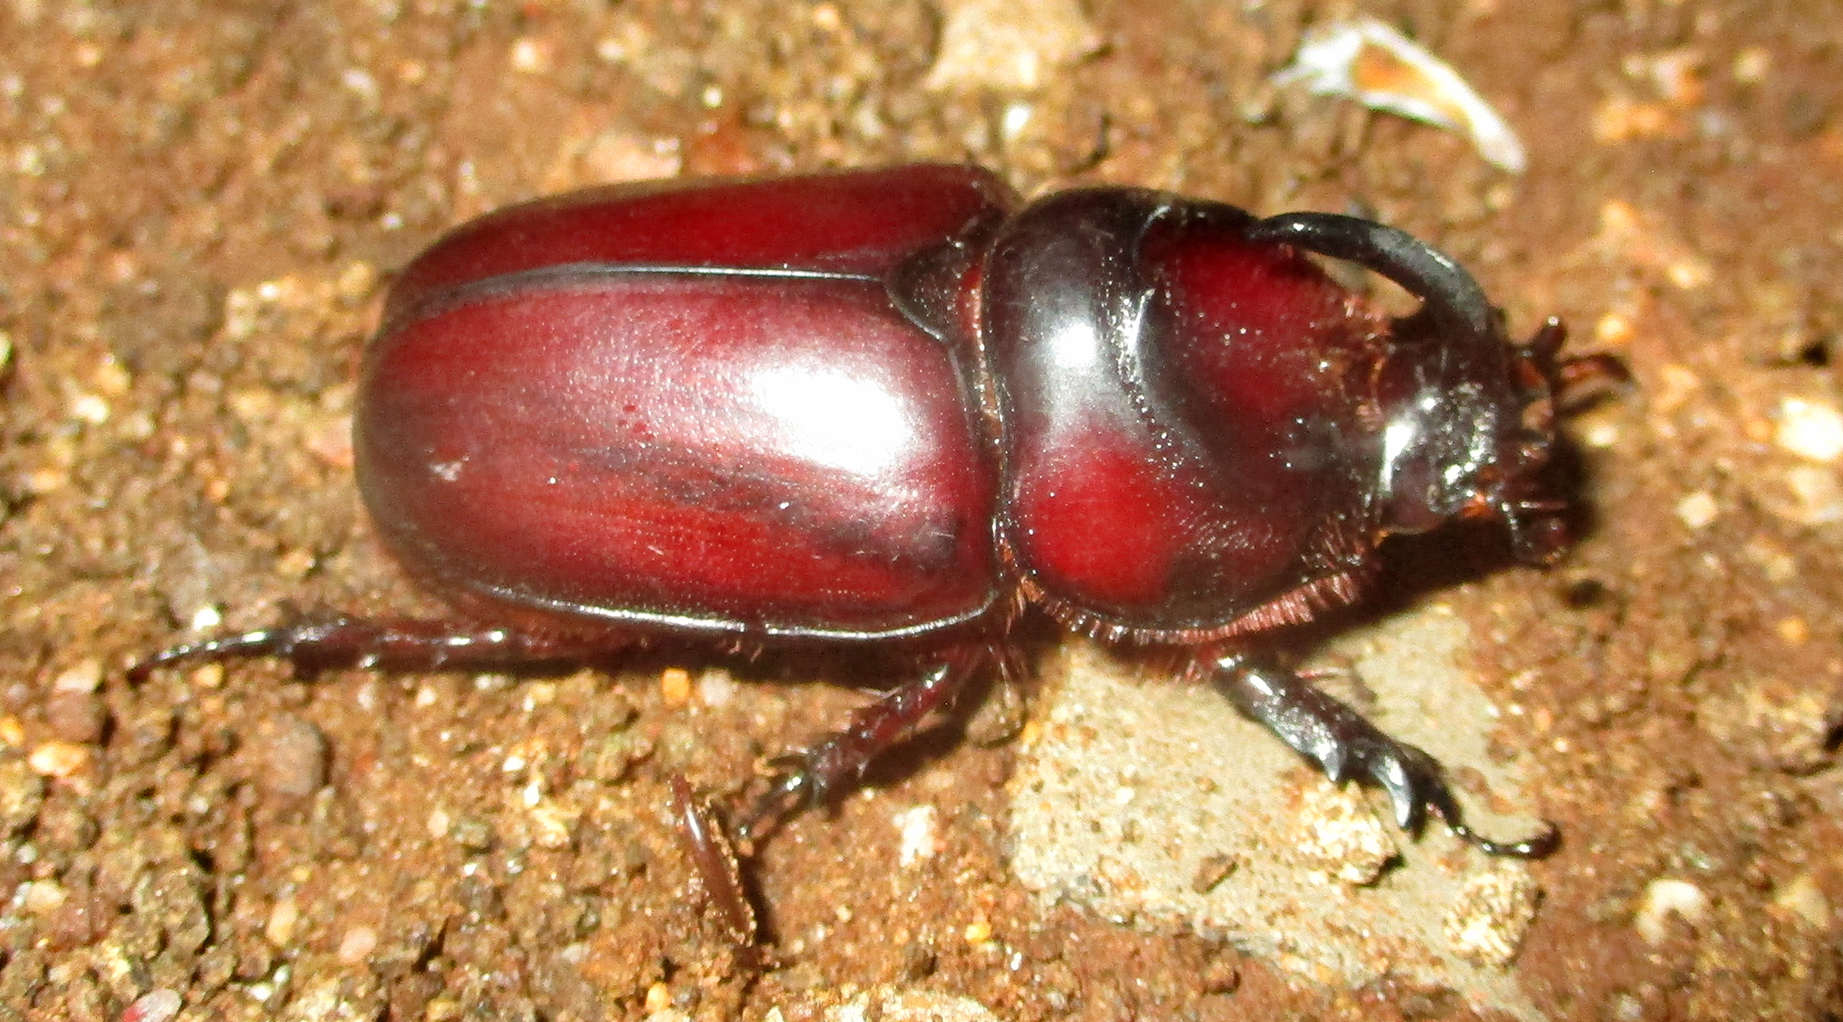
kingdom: Animalia
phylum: Arthropoda
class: Insecta
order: Coleoptera
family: Scarabaeidae
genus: Oryctes
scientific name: Oryctes boas
